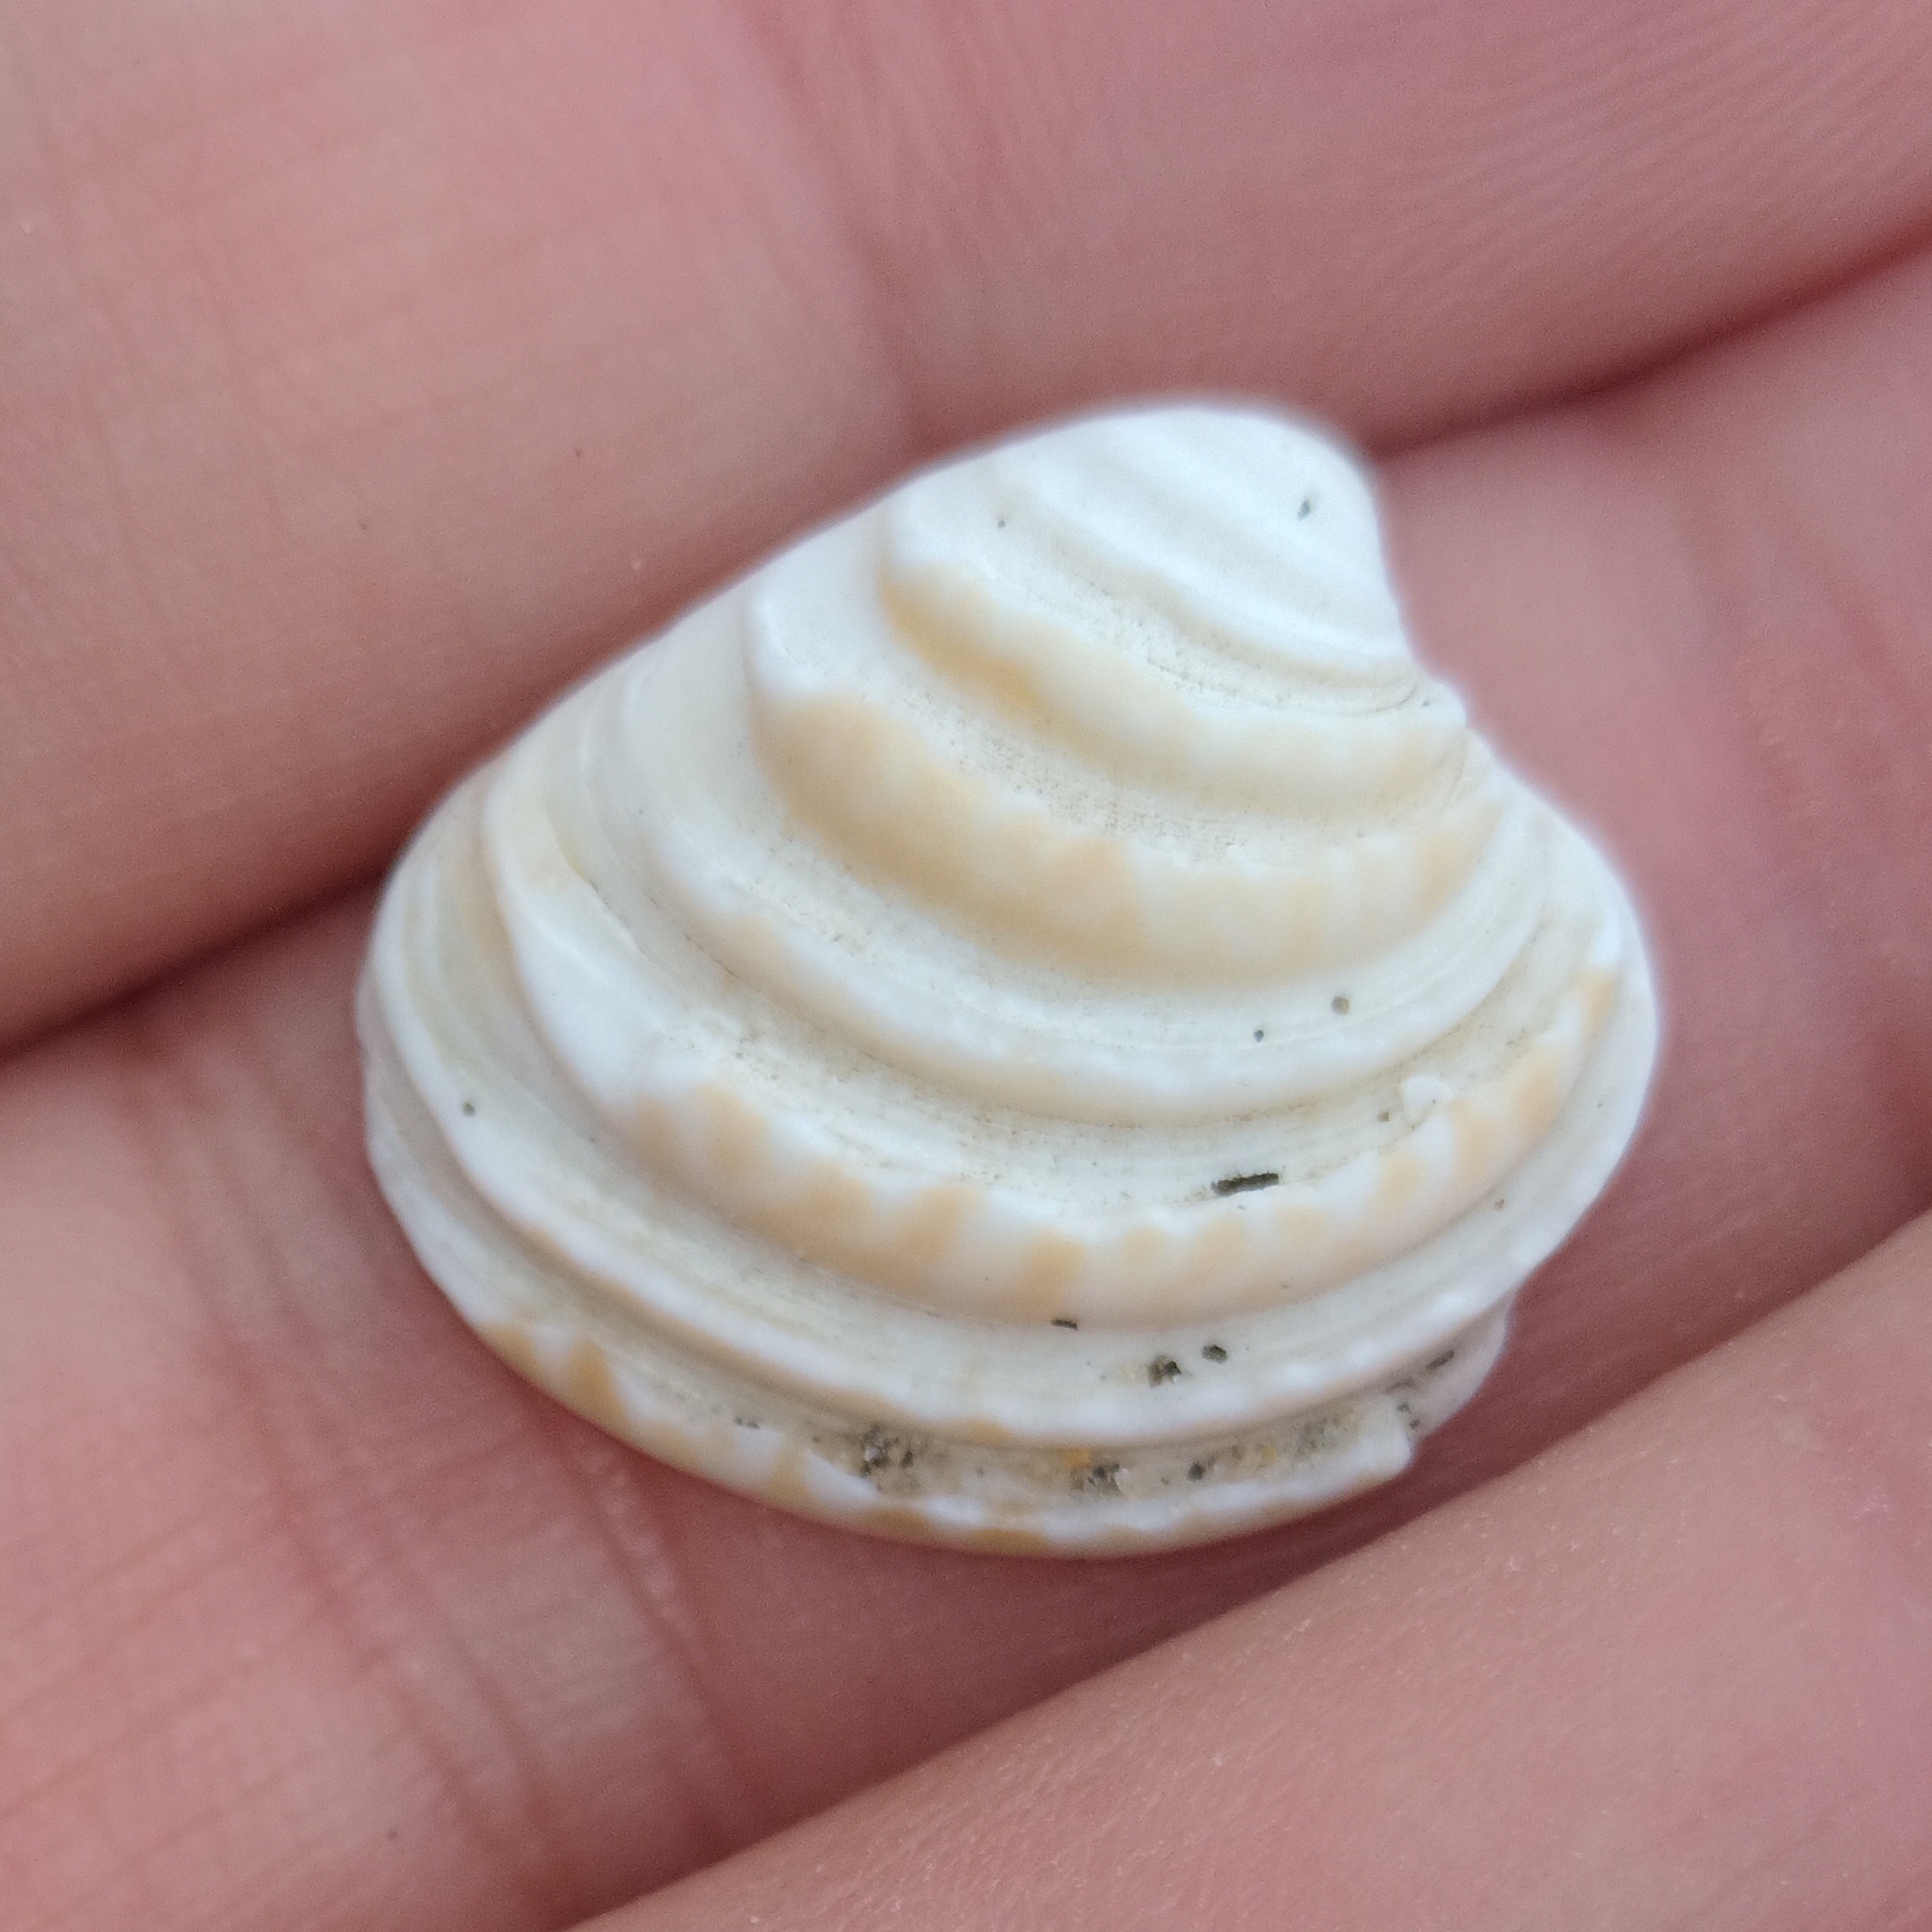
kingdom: Animalia
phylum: Mollusca
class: Bivalvia
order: Venerida
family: Veneridae
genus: Lirophora
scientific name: Lirophora paphia
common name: King venus
